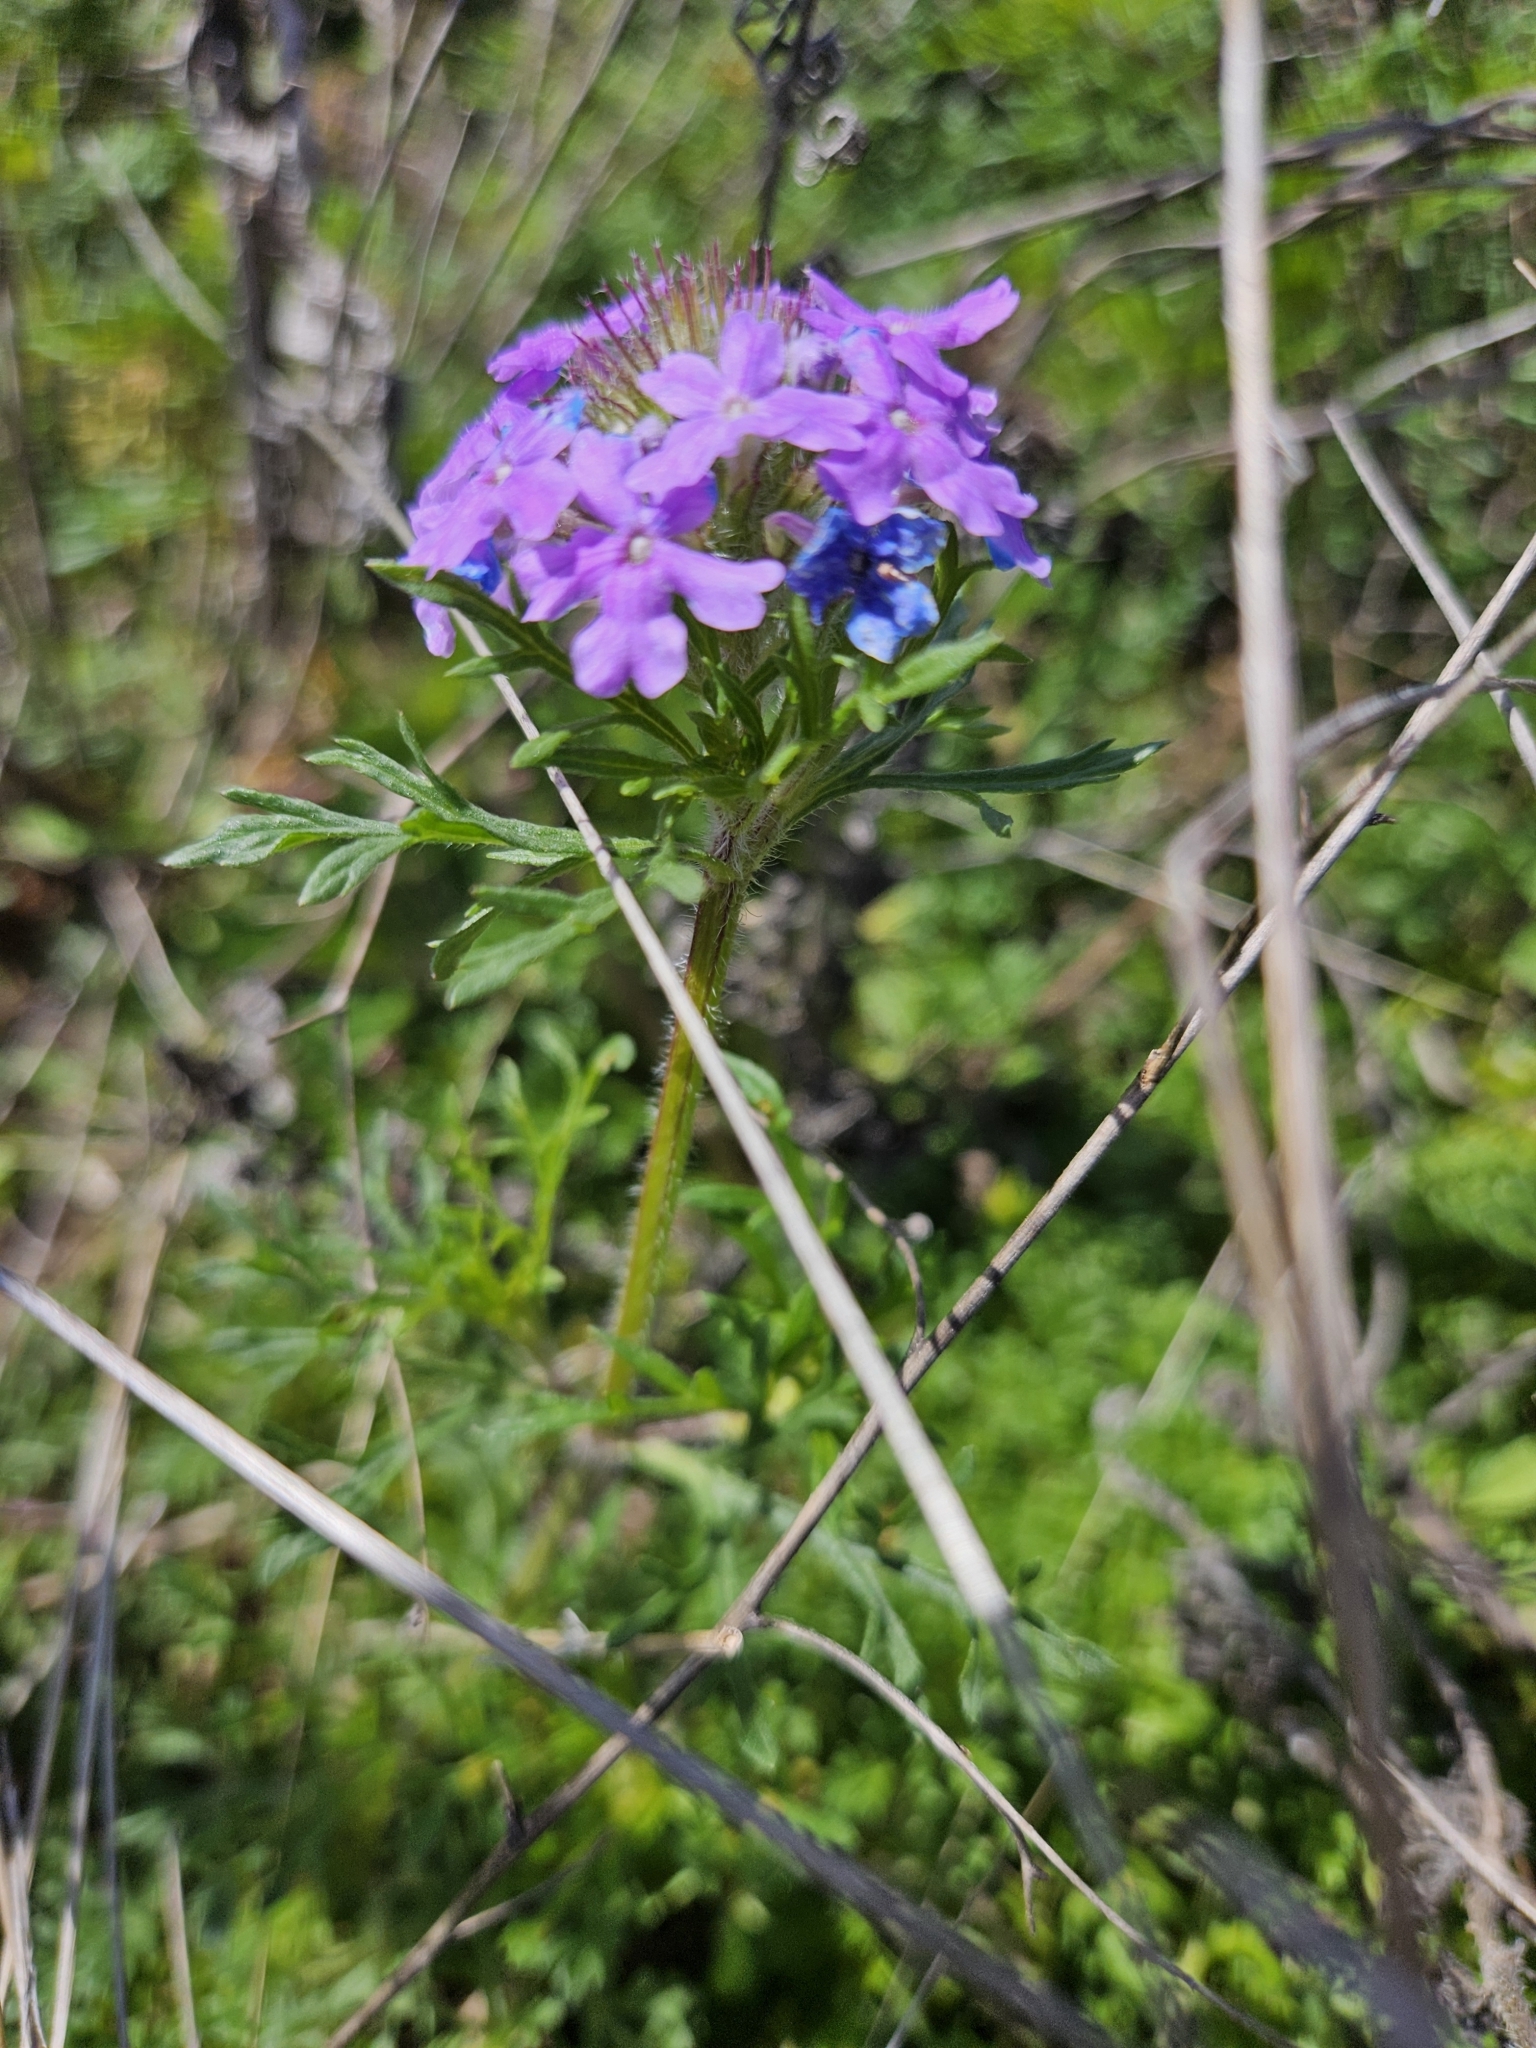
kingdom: Plantae
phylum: Tracheophyta
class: Magnoliopsida
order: Lamiales
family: Verbenaceae
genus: Verbena
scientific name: Verbena bipinnatifida
